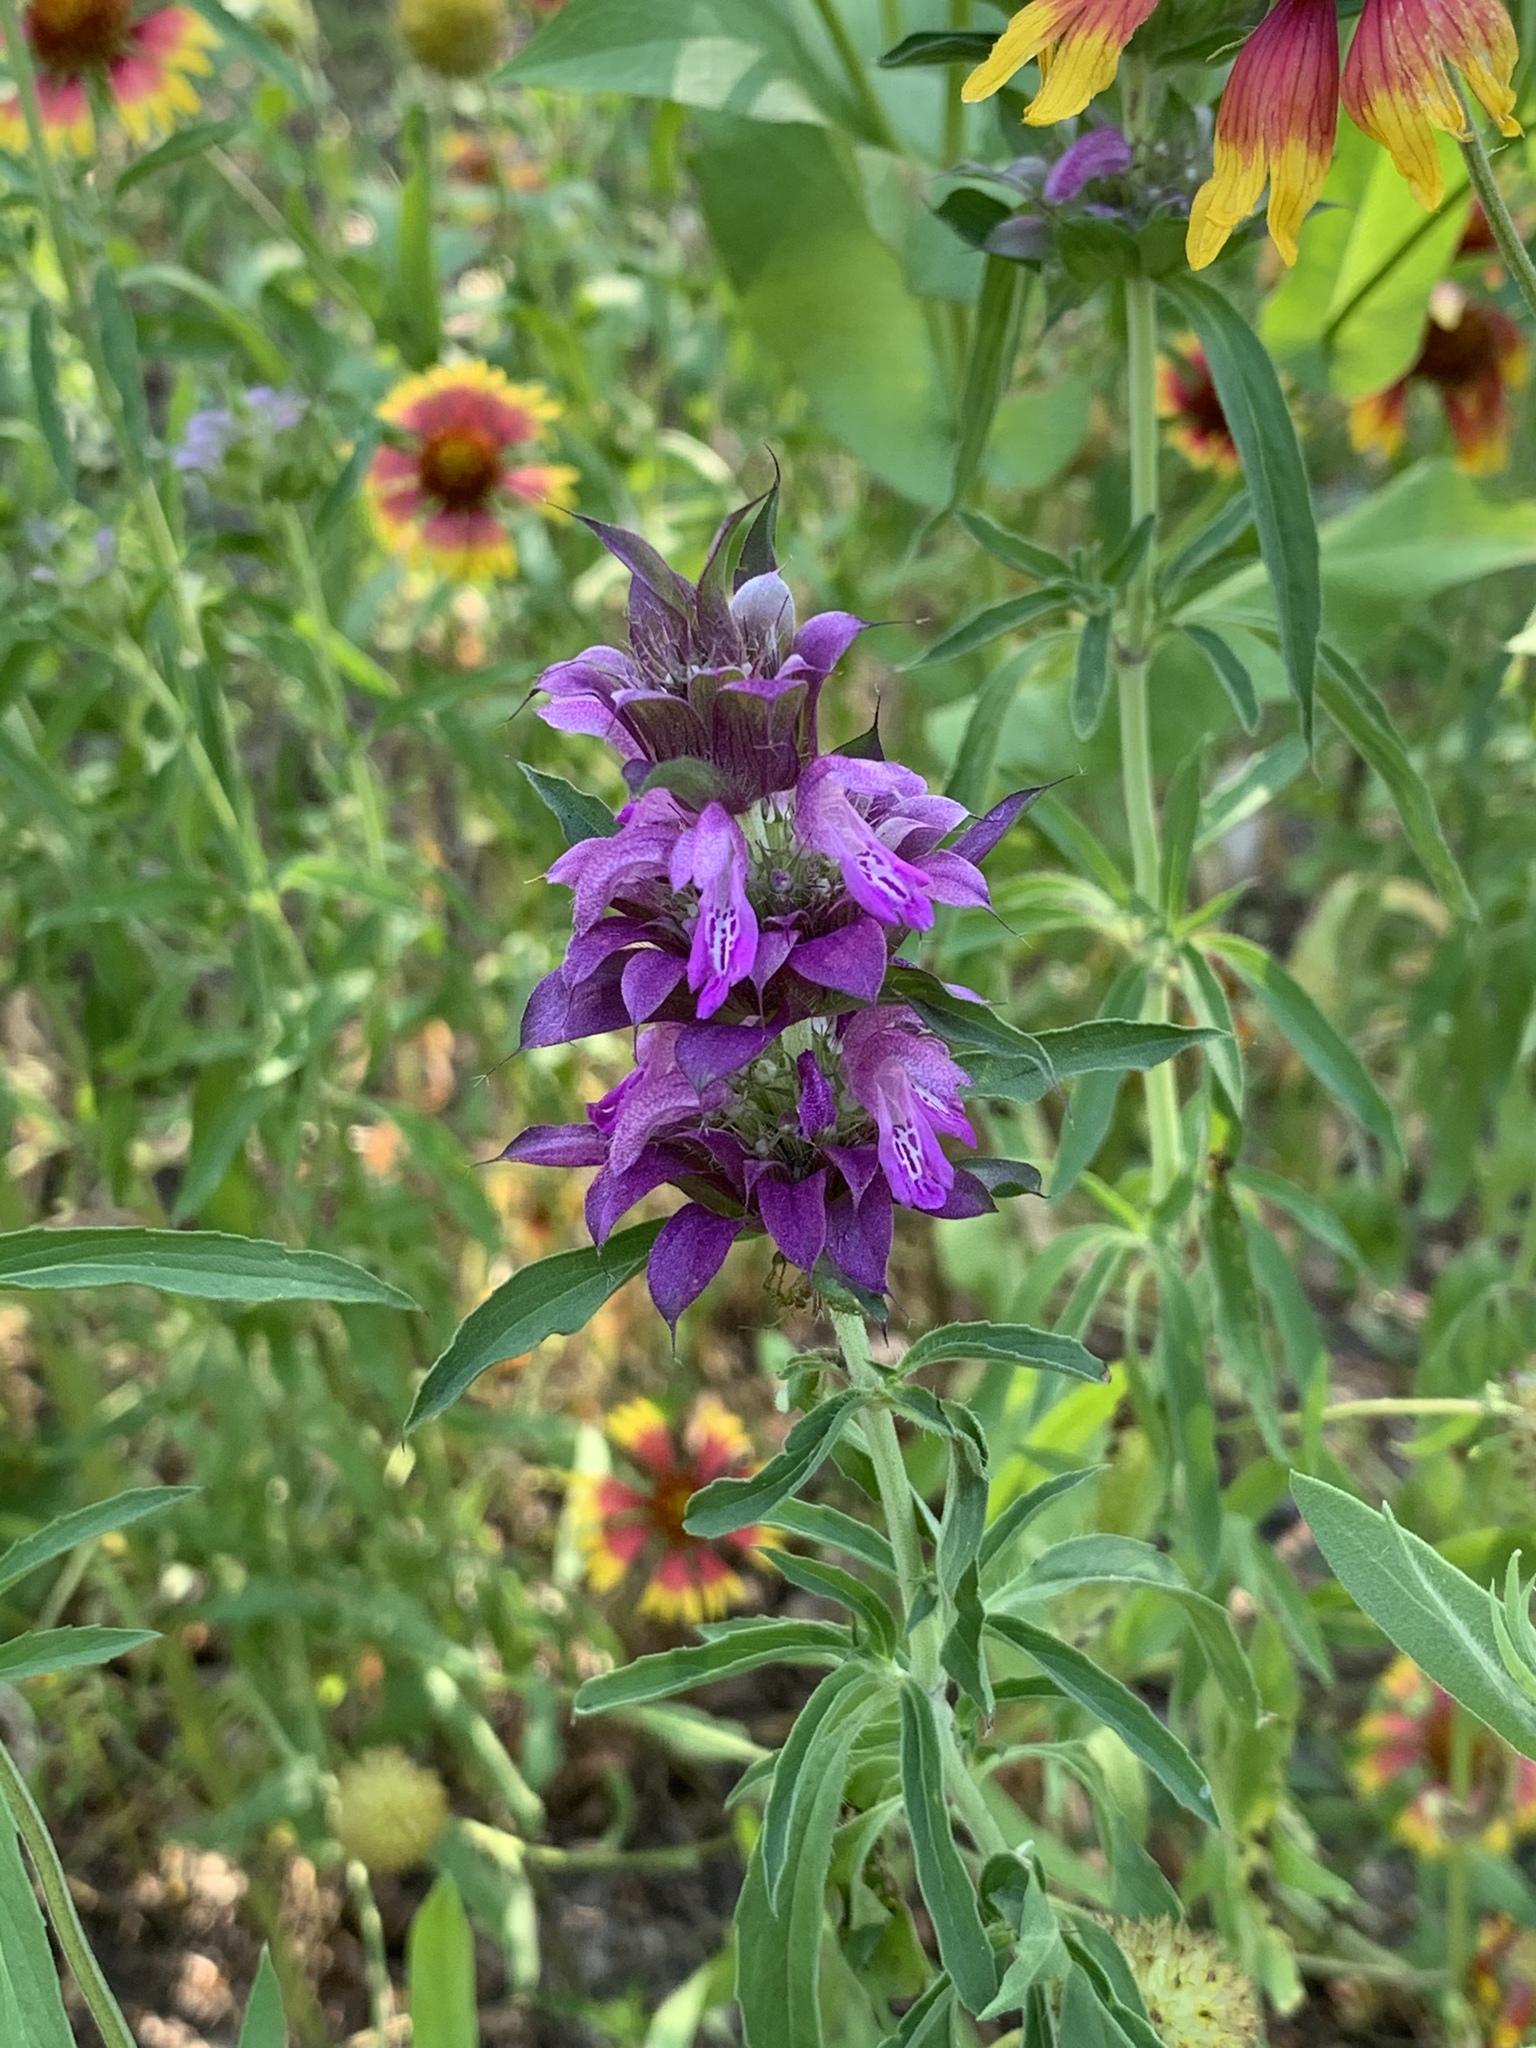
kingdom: Plantae
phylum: Tracheophyta
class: Magnoliopsida
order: Lamiales
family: Lamiaceae
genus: Monarda
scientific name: Monarda citriodora
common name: Lemon beebalm
